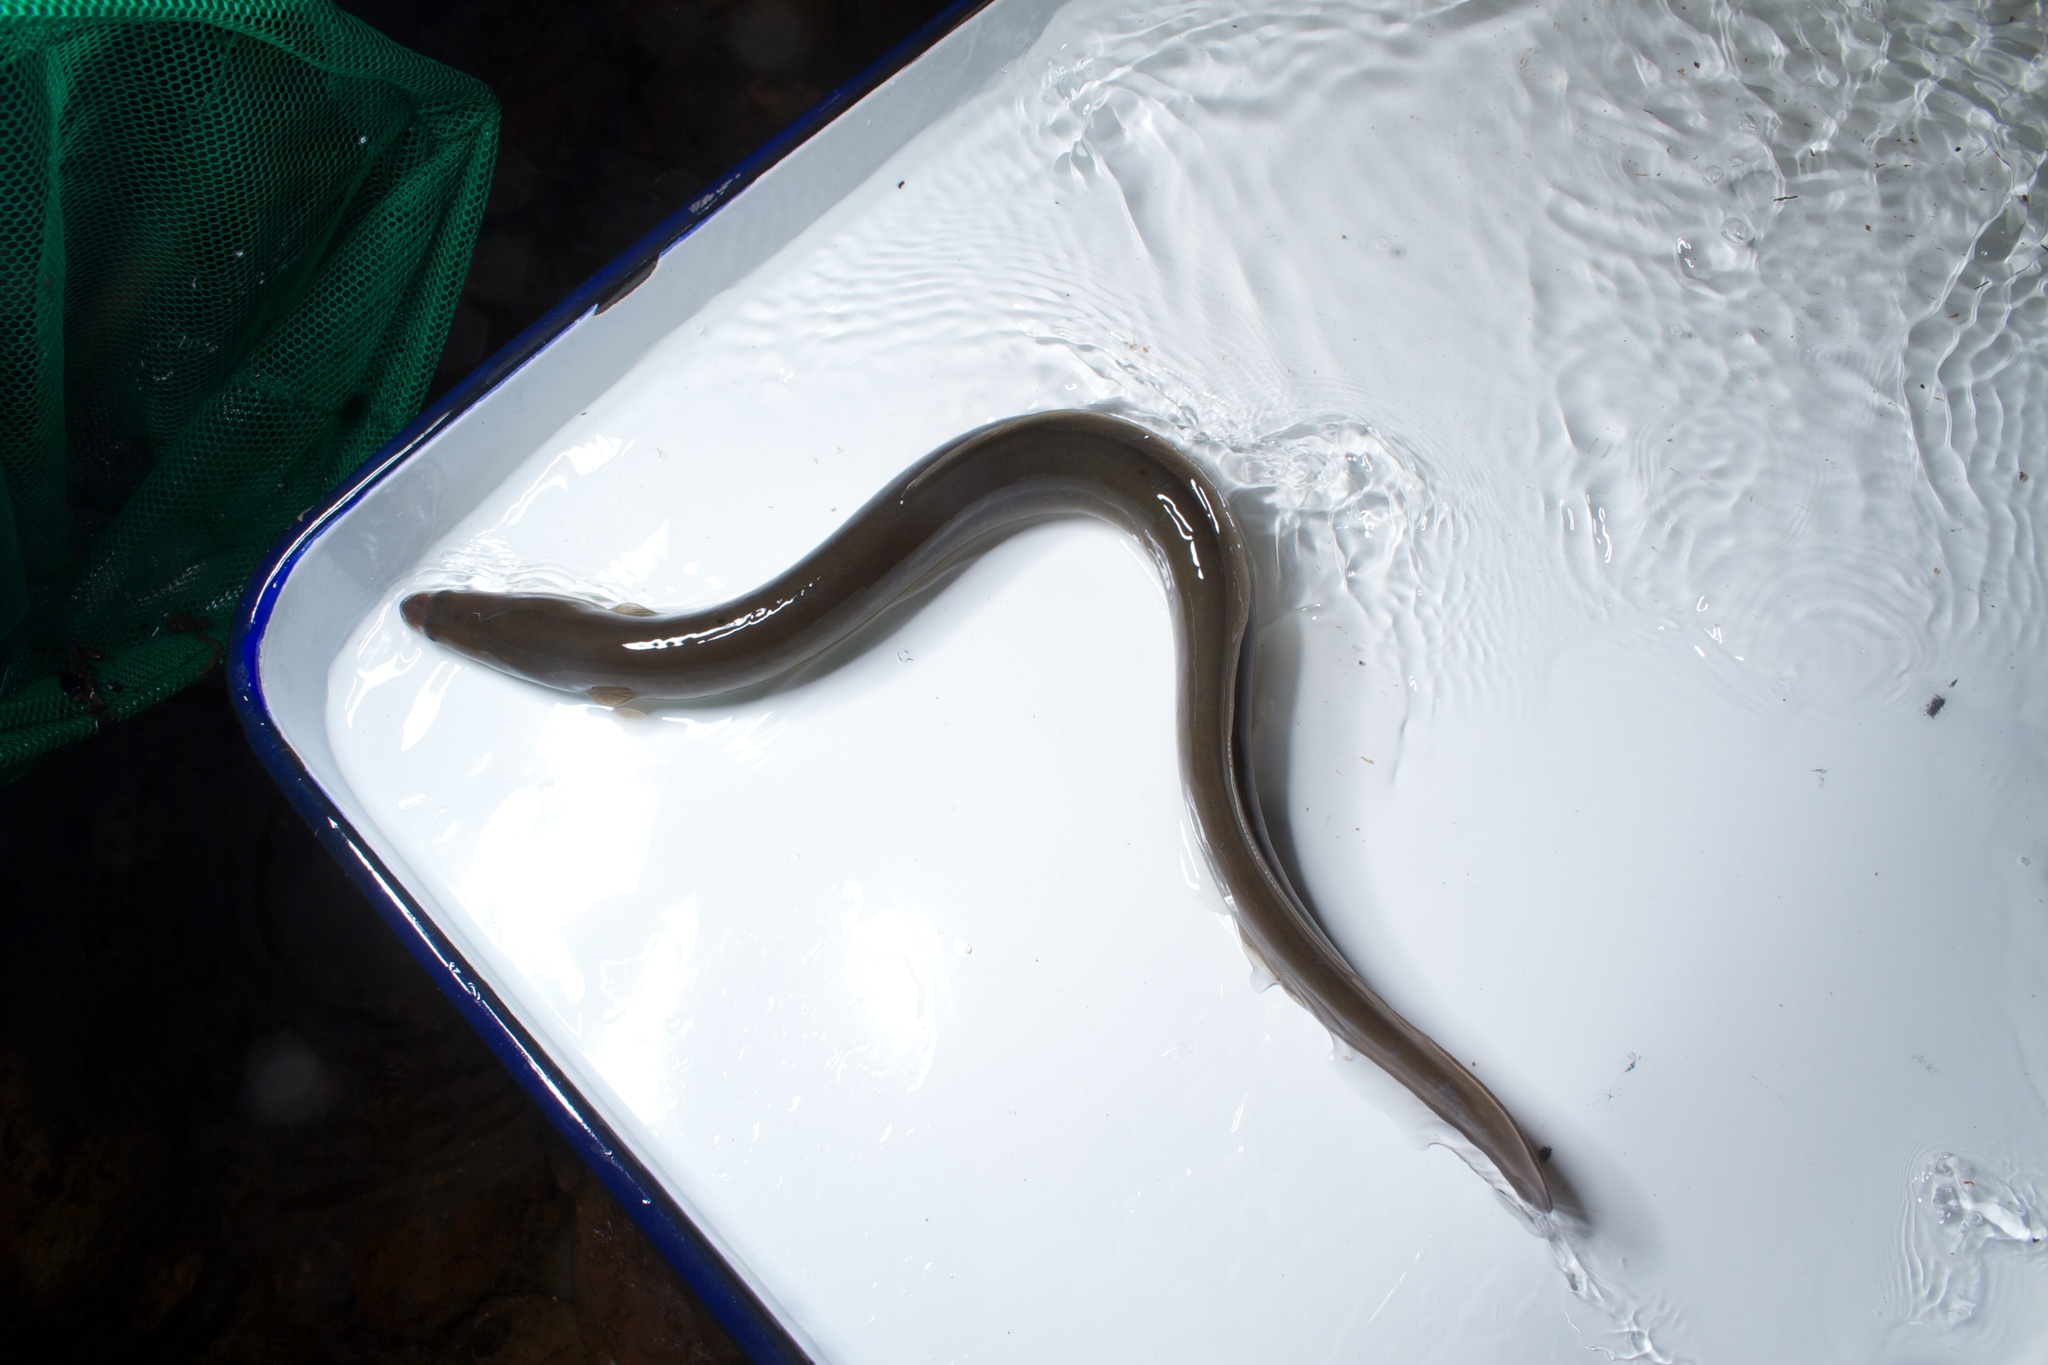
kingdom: Animalia
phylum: Chordata
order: Anguilliformes
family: Anguillidae
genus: Anguilla
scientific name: Anguilla rostrata
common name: American eel
